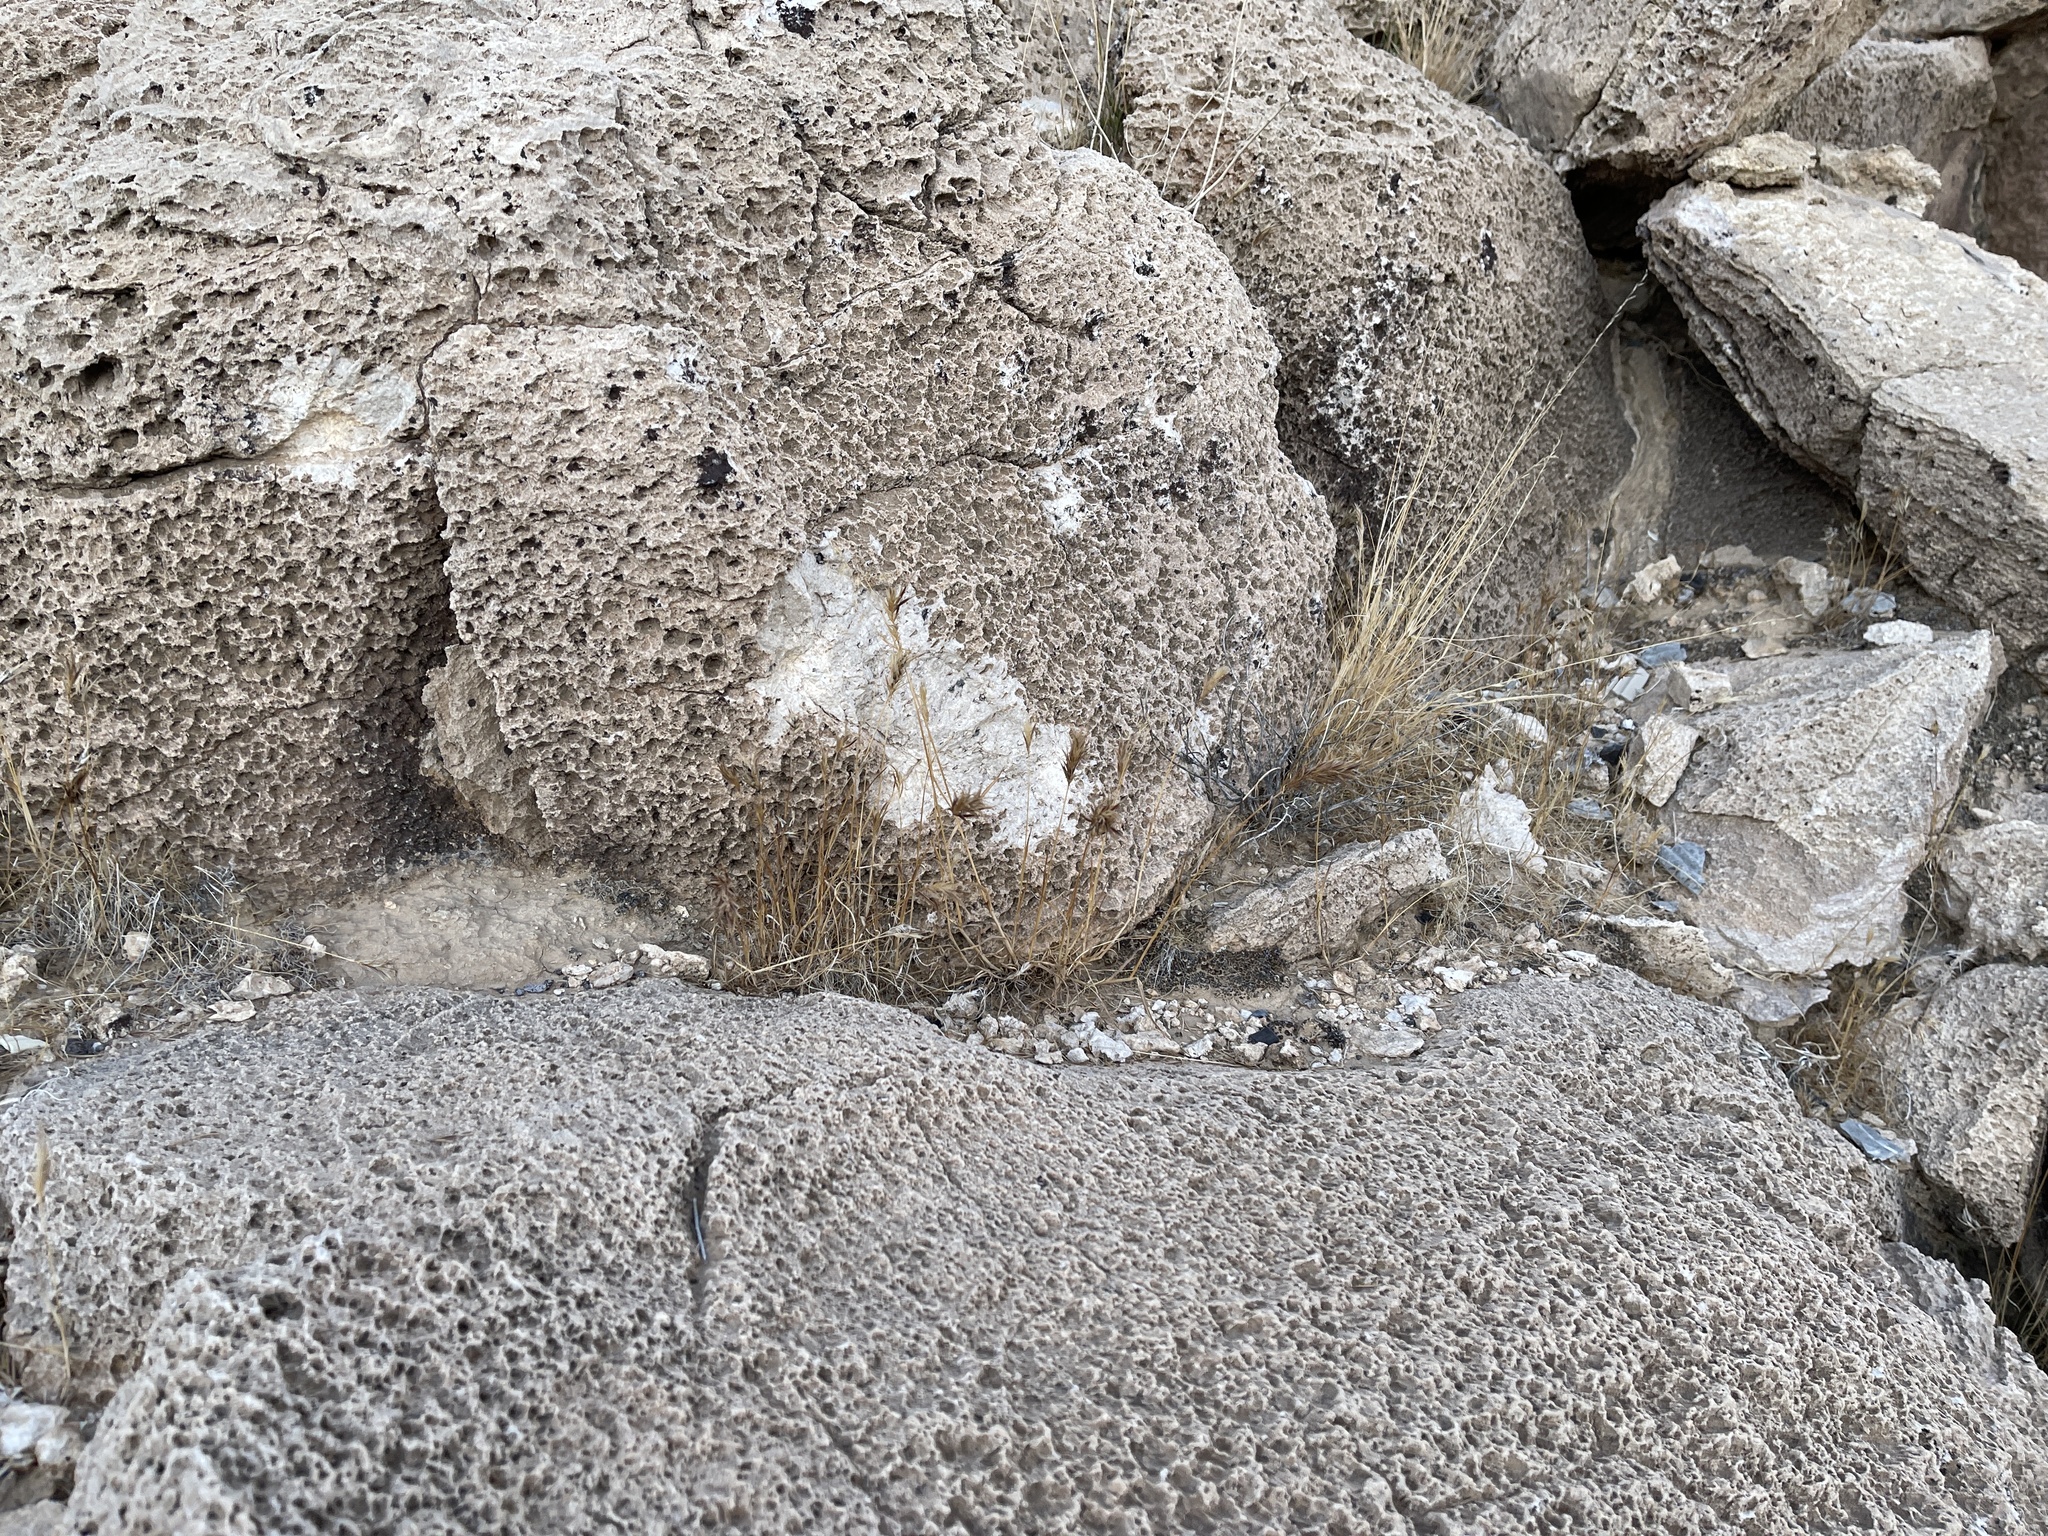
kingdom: Plantae
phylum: Tracheophyta
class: Liliopsida
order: Poales
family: Poaceae
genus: Bromus
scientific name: Bromus rubens
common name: Red brome
